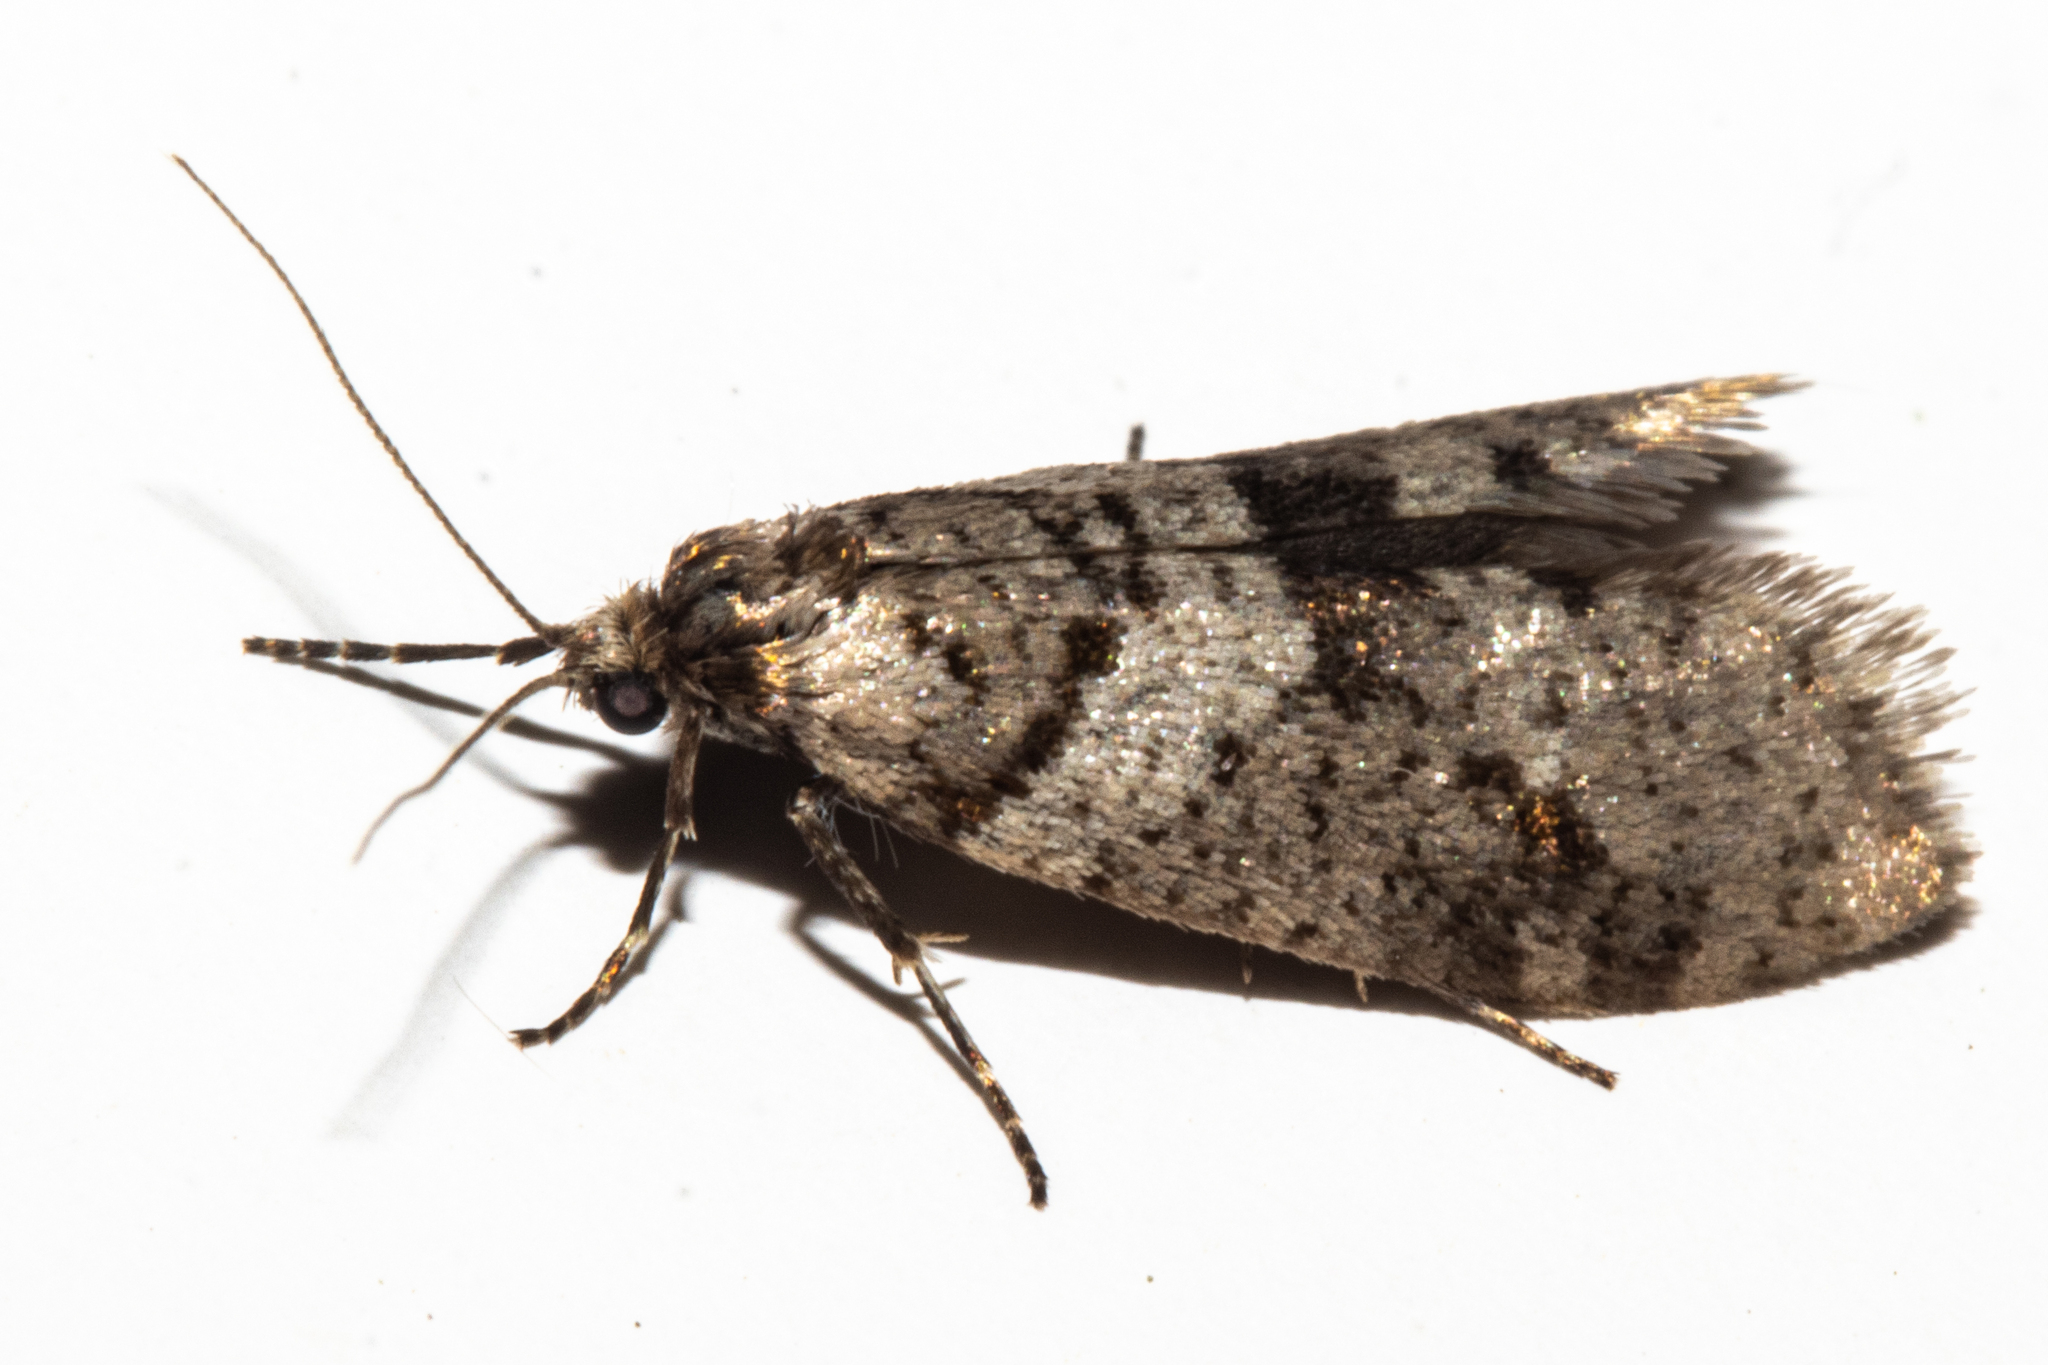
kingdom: Animalia
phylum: Arthropoda
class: Insecta
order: Lepidoptera
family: Psychidae
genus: Lepidoscia
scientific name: Lepidoscia heliochares
